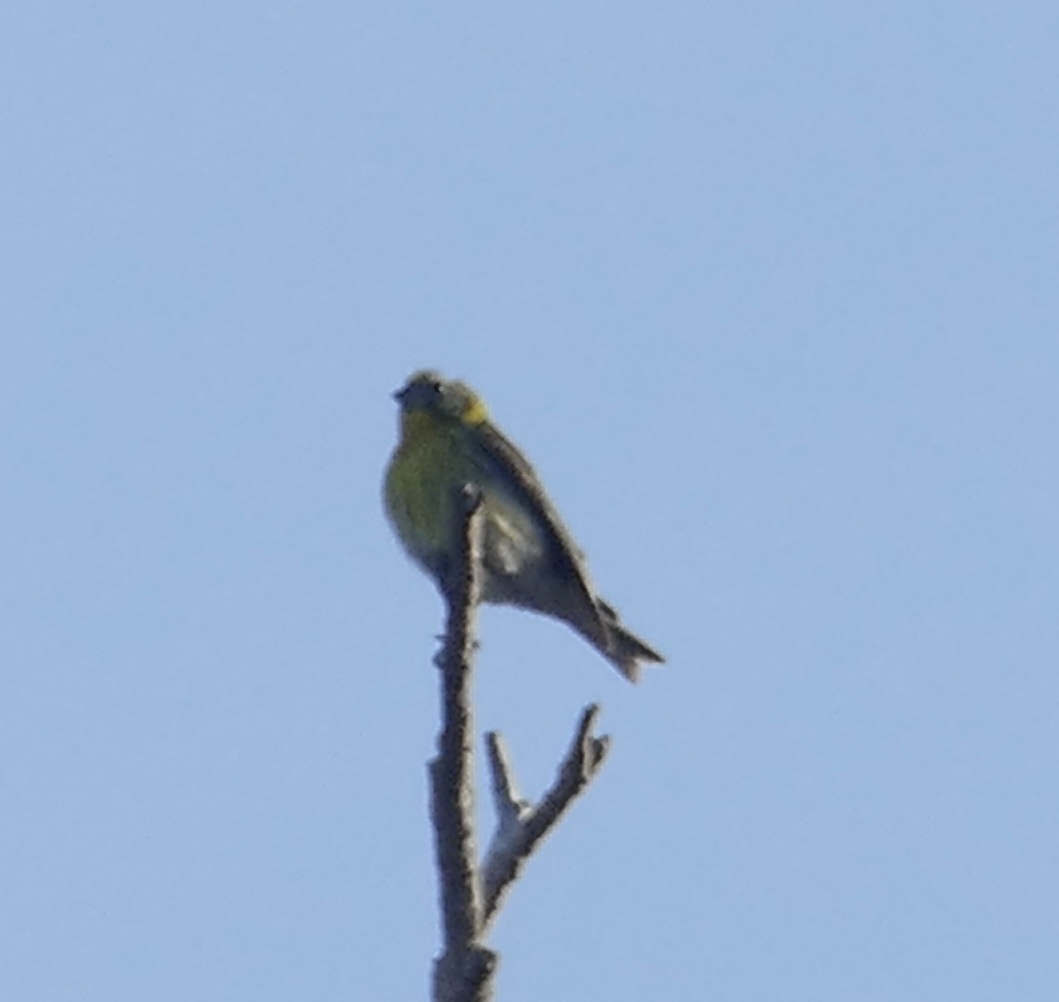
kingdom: Animalia
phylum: Chordata
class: Aves
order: Passeriformes
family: Fringillidae
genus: Serinus
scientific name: Serinus serinus
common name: European serin
